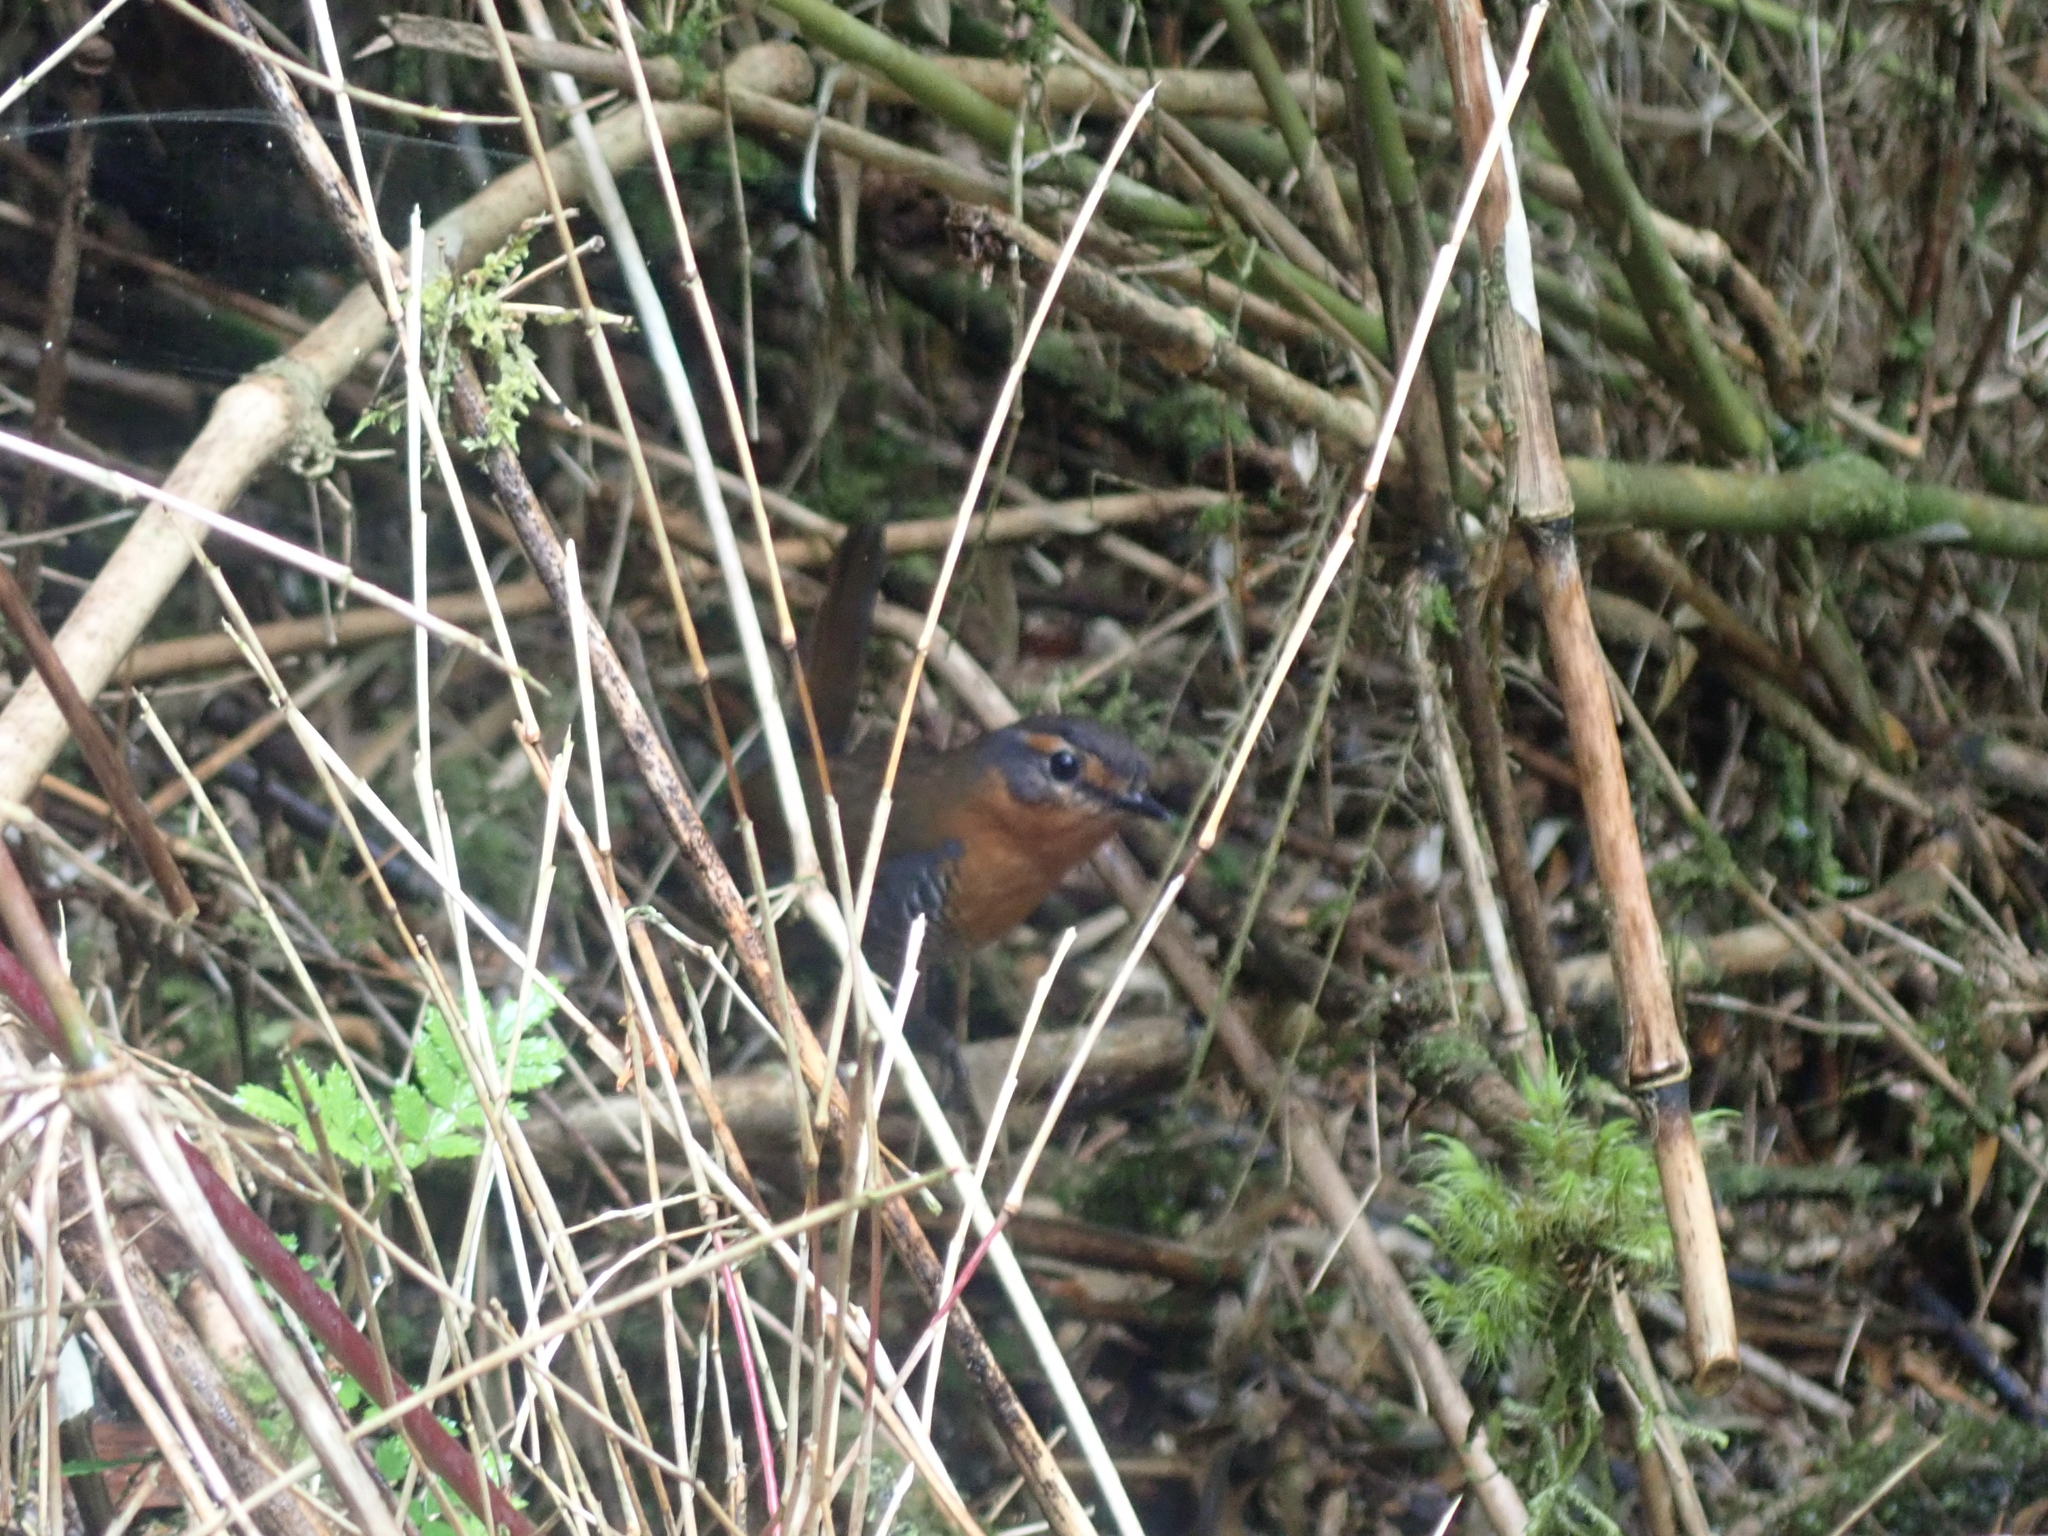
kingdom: Animalia
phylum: Chordata
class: Aves
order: Passeriformes
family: Rhinocryptidae
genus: Scelorchilus
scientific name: Scelorchilus rubecula
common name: Chucao tapaculo
